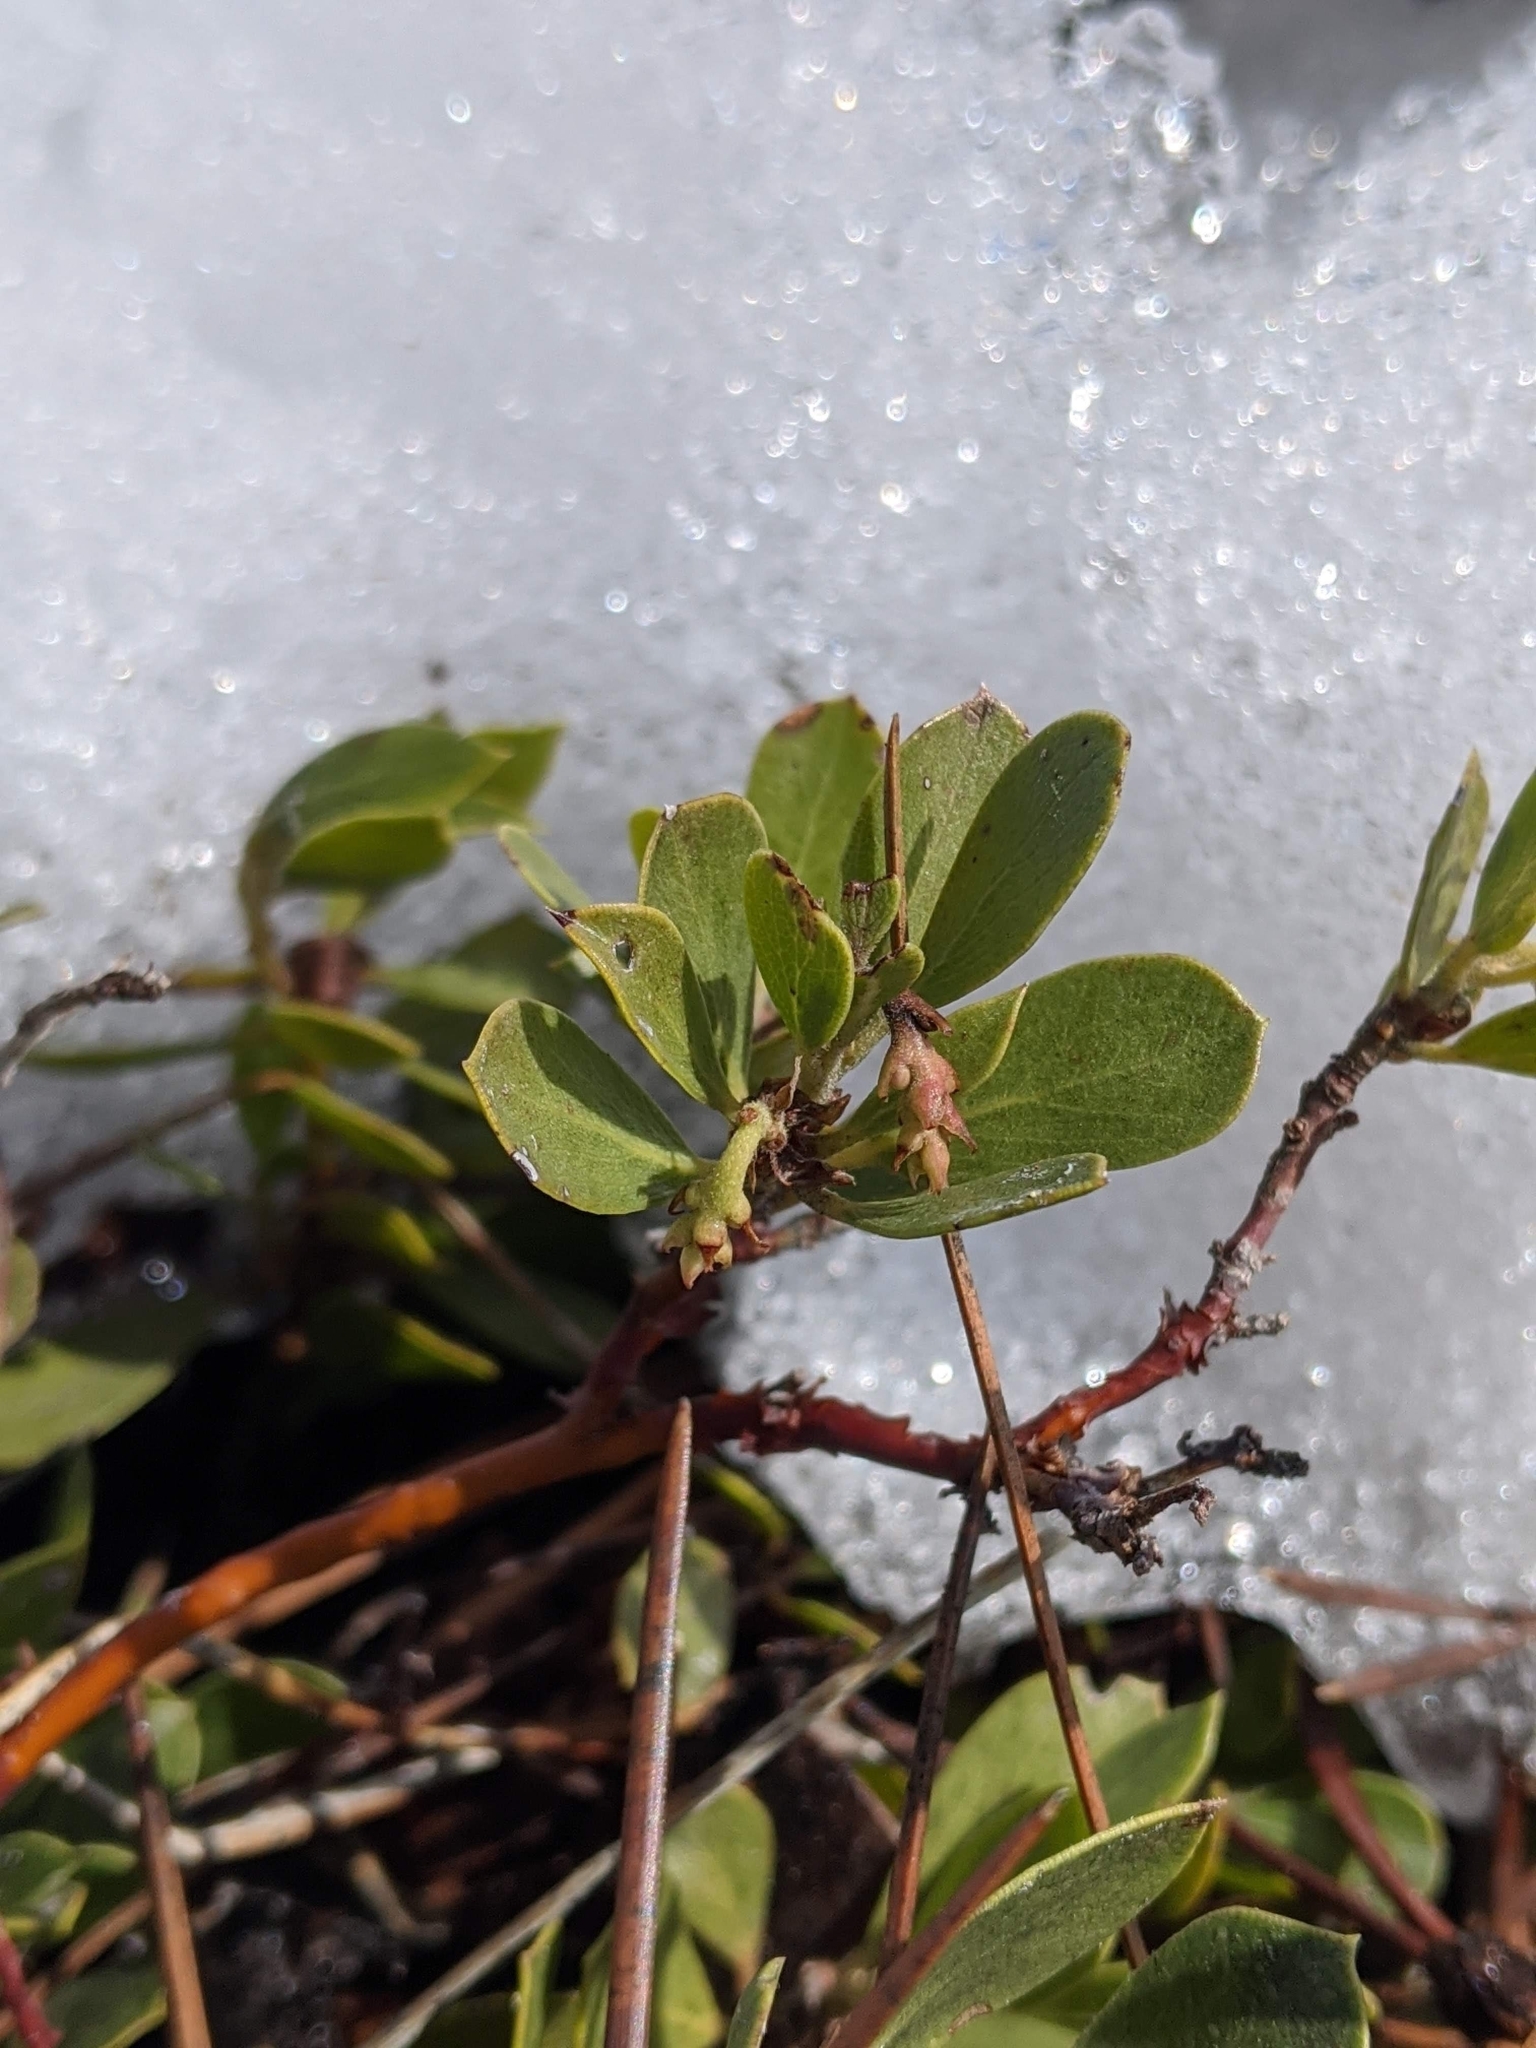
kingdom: Plantae
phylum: Tracheophyta
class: Magnoliopsida
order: Ericales
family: Ericaceae
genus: Arctostaphylos
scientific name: Arctostaphylos nevadensis
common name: Pinemat manzanita
